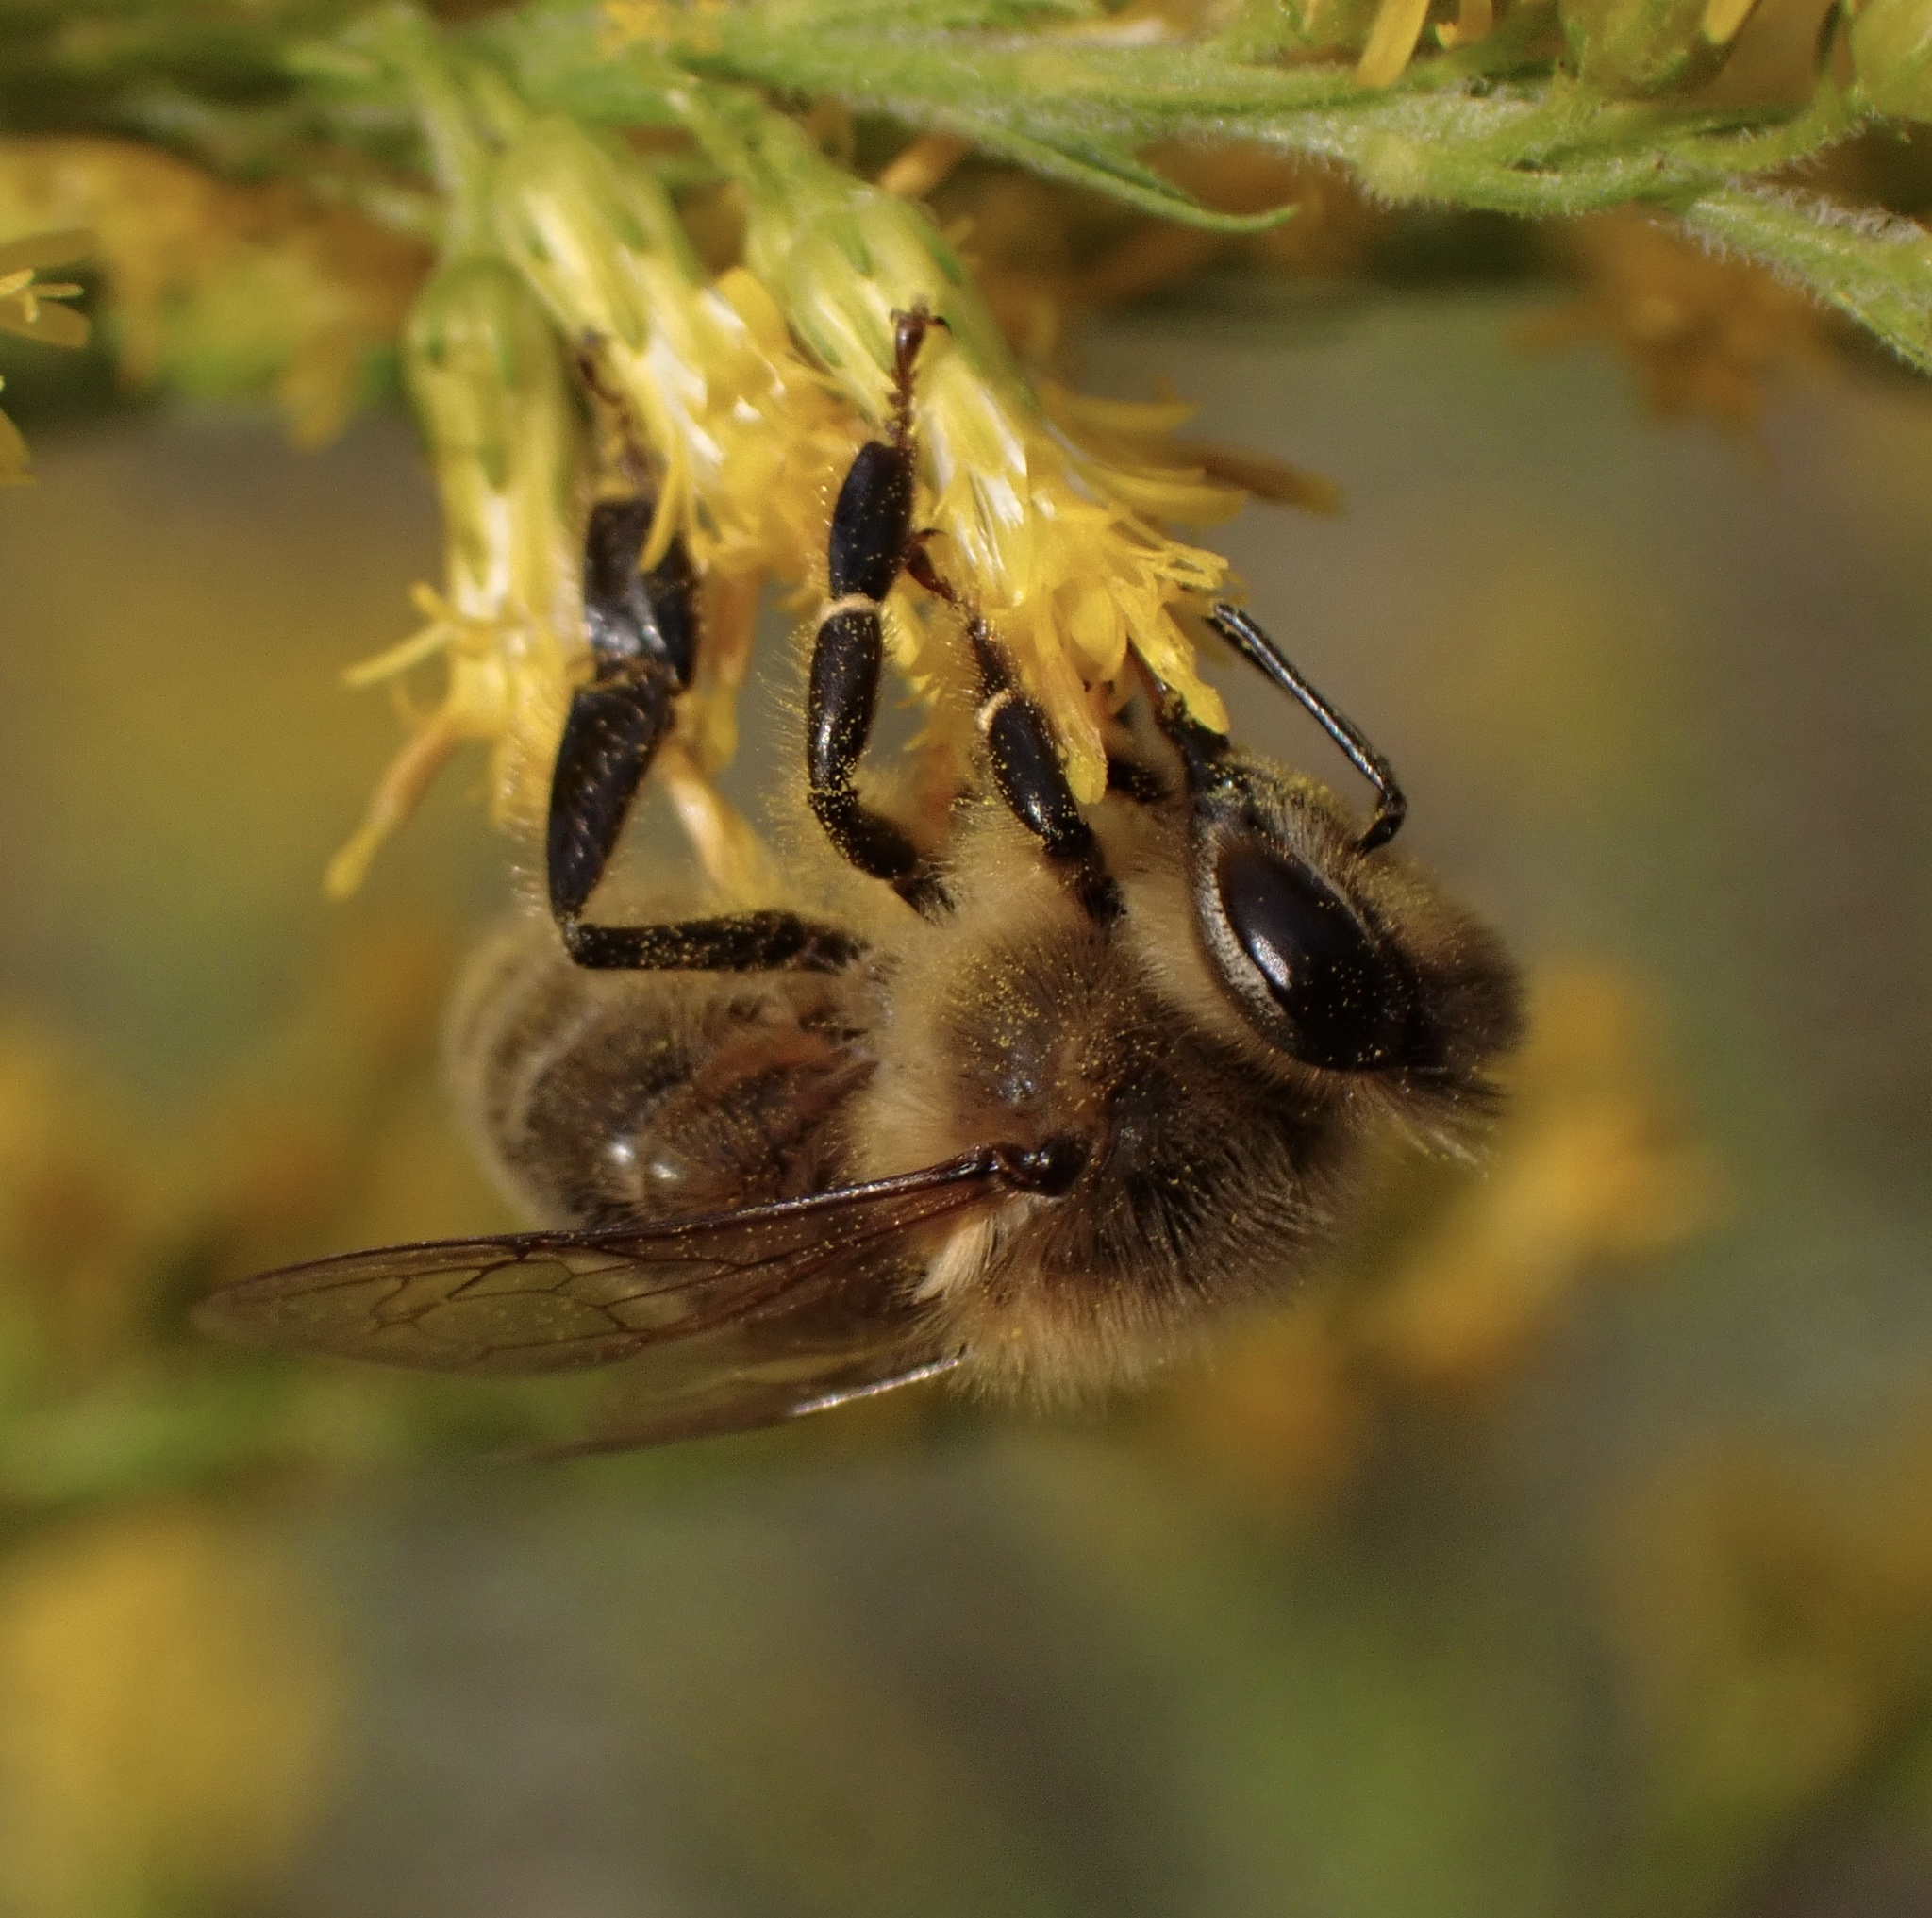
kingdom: Animalia
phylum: Arthropoda
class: Insecta
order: Hymenoptera
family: Apidae
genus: Apis
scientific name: Apis mellifera
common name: Honey bee
